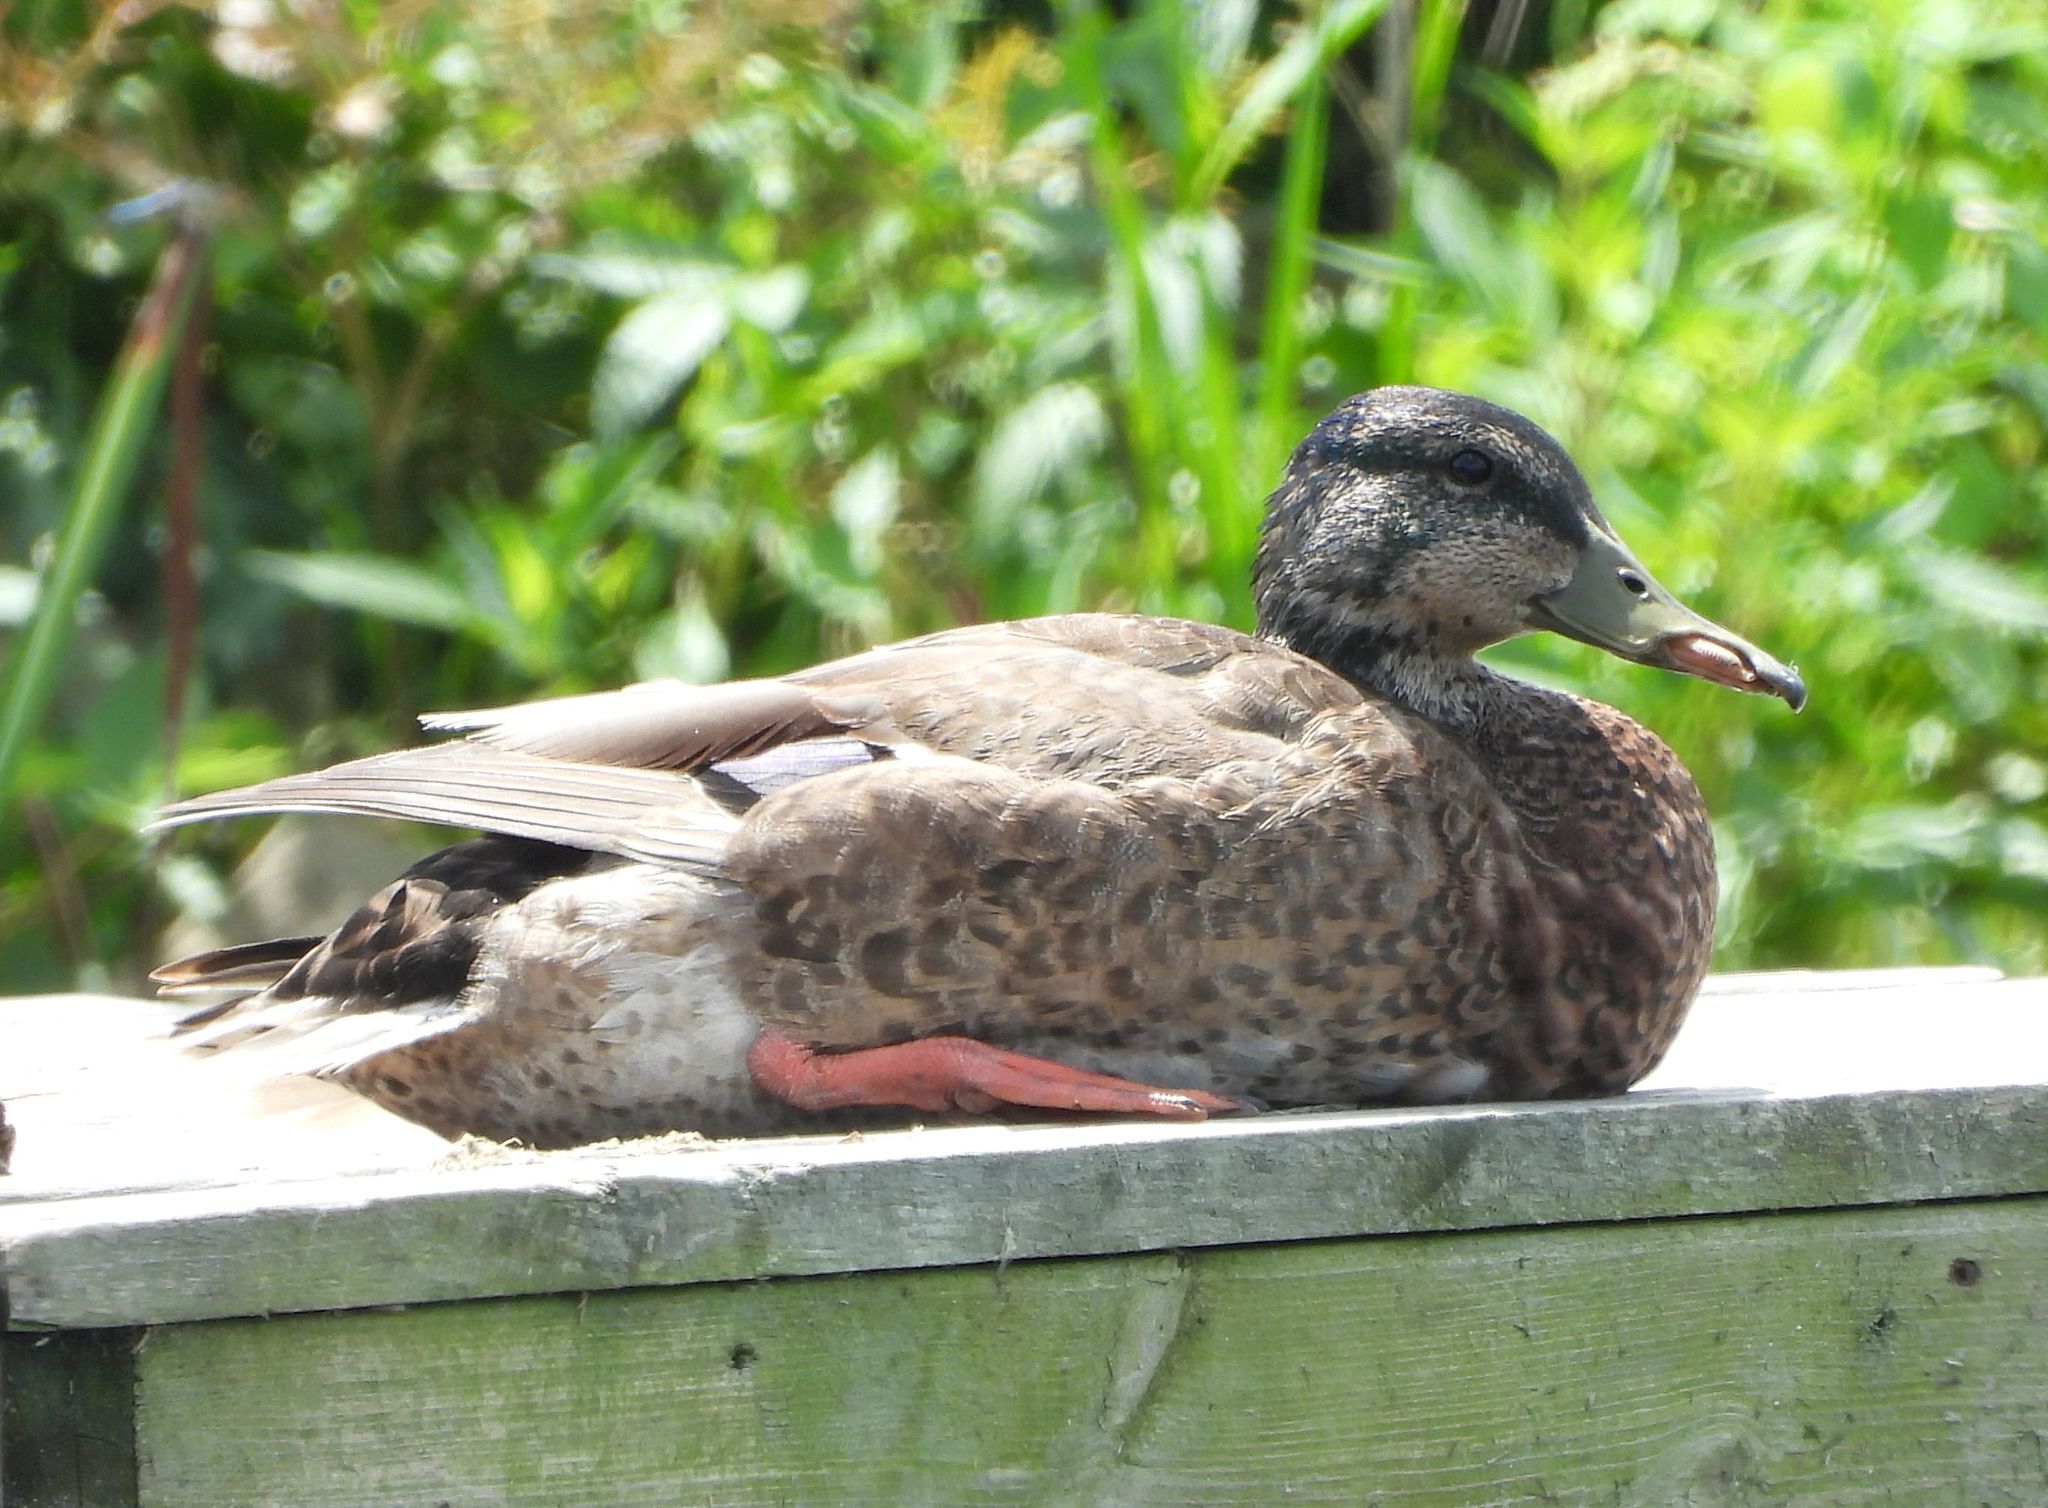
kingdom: Animalia
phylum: Chordata
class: Aves
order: Anseriformes
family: Anatidae
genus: Anas
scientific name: Anas platyrhynchos
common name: Mallard
